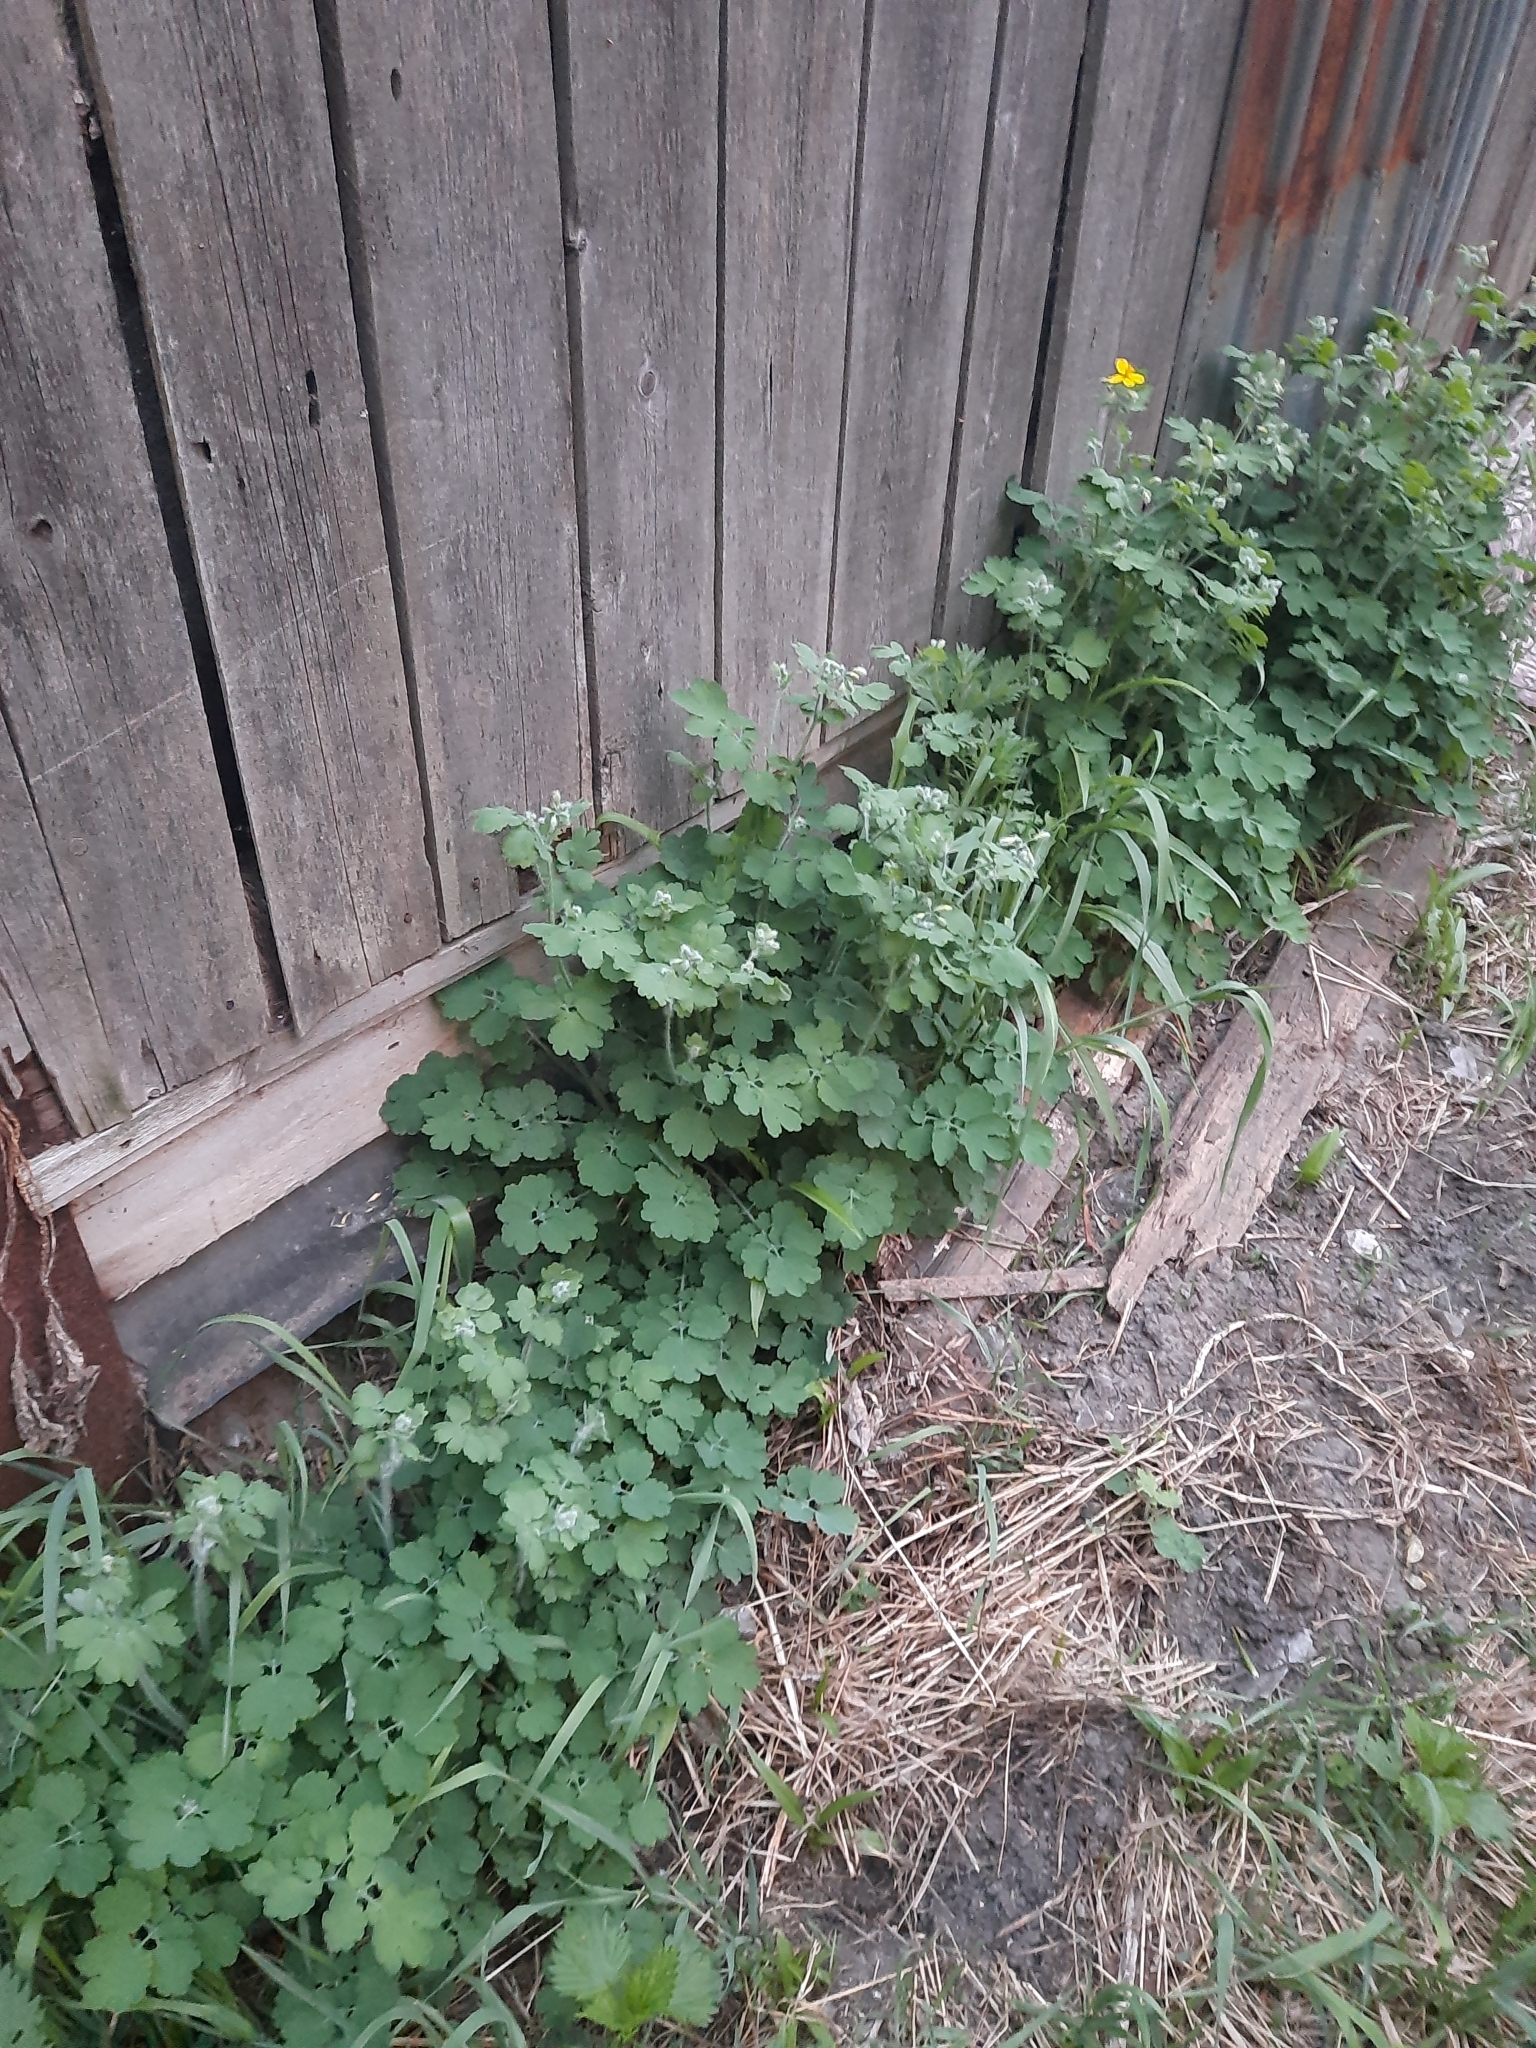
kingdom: Plantae
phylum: Tracheophyta
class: Magnoliopsida
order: Ranunculales
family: Papaveraceae
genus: Chelidonium
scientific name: Chelidonium majus
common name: Greater celandine
